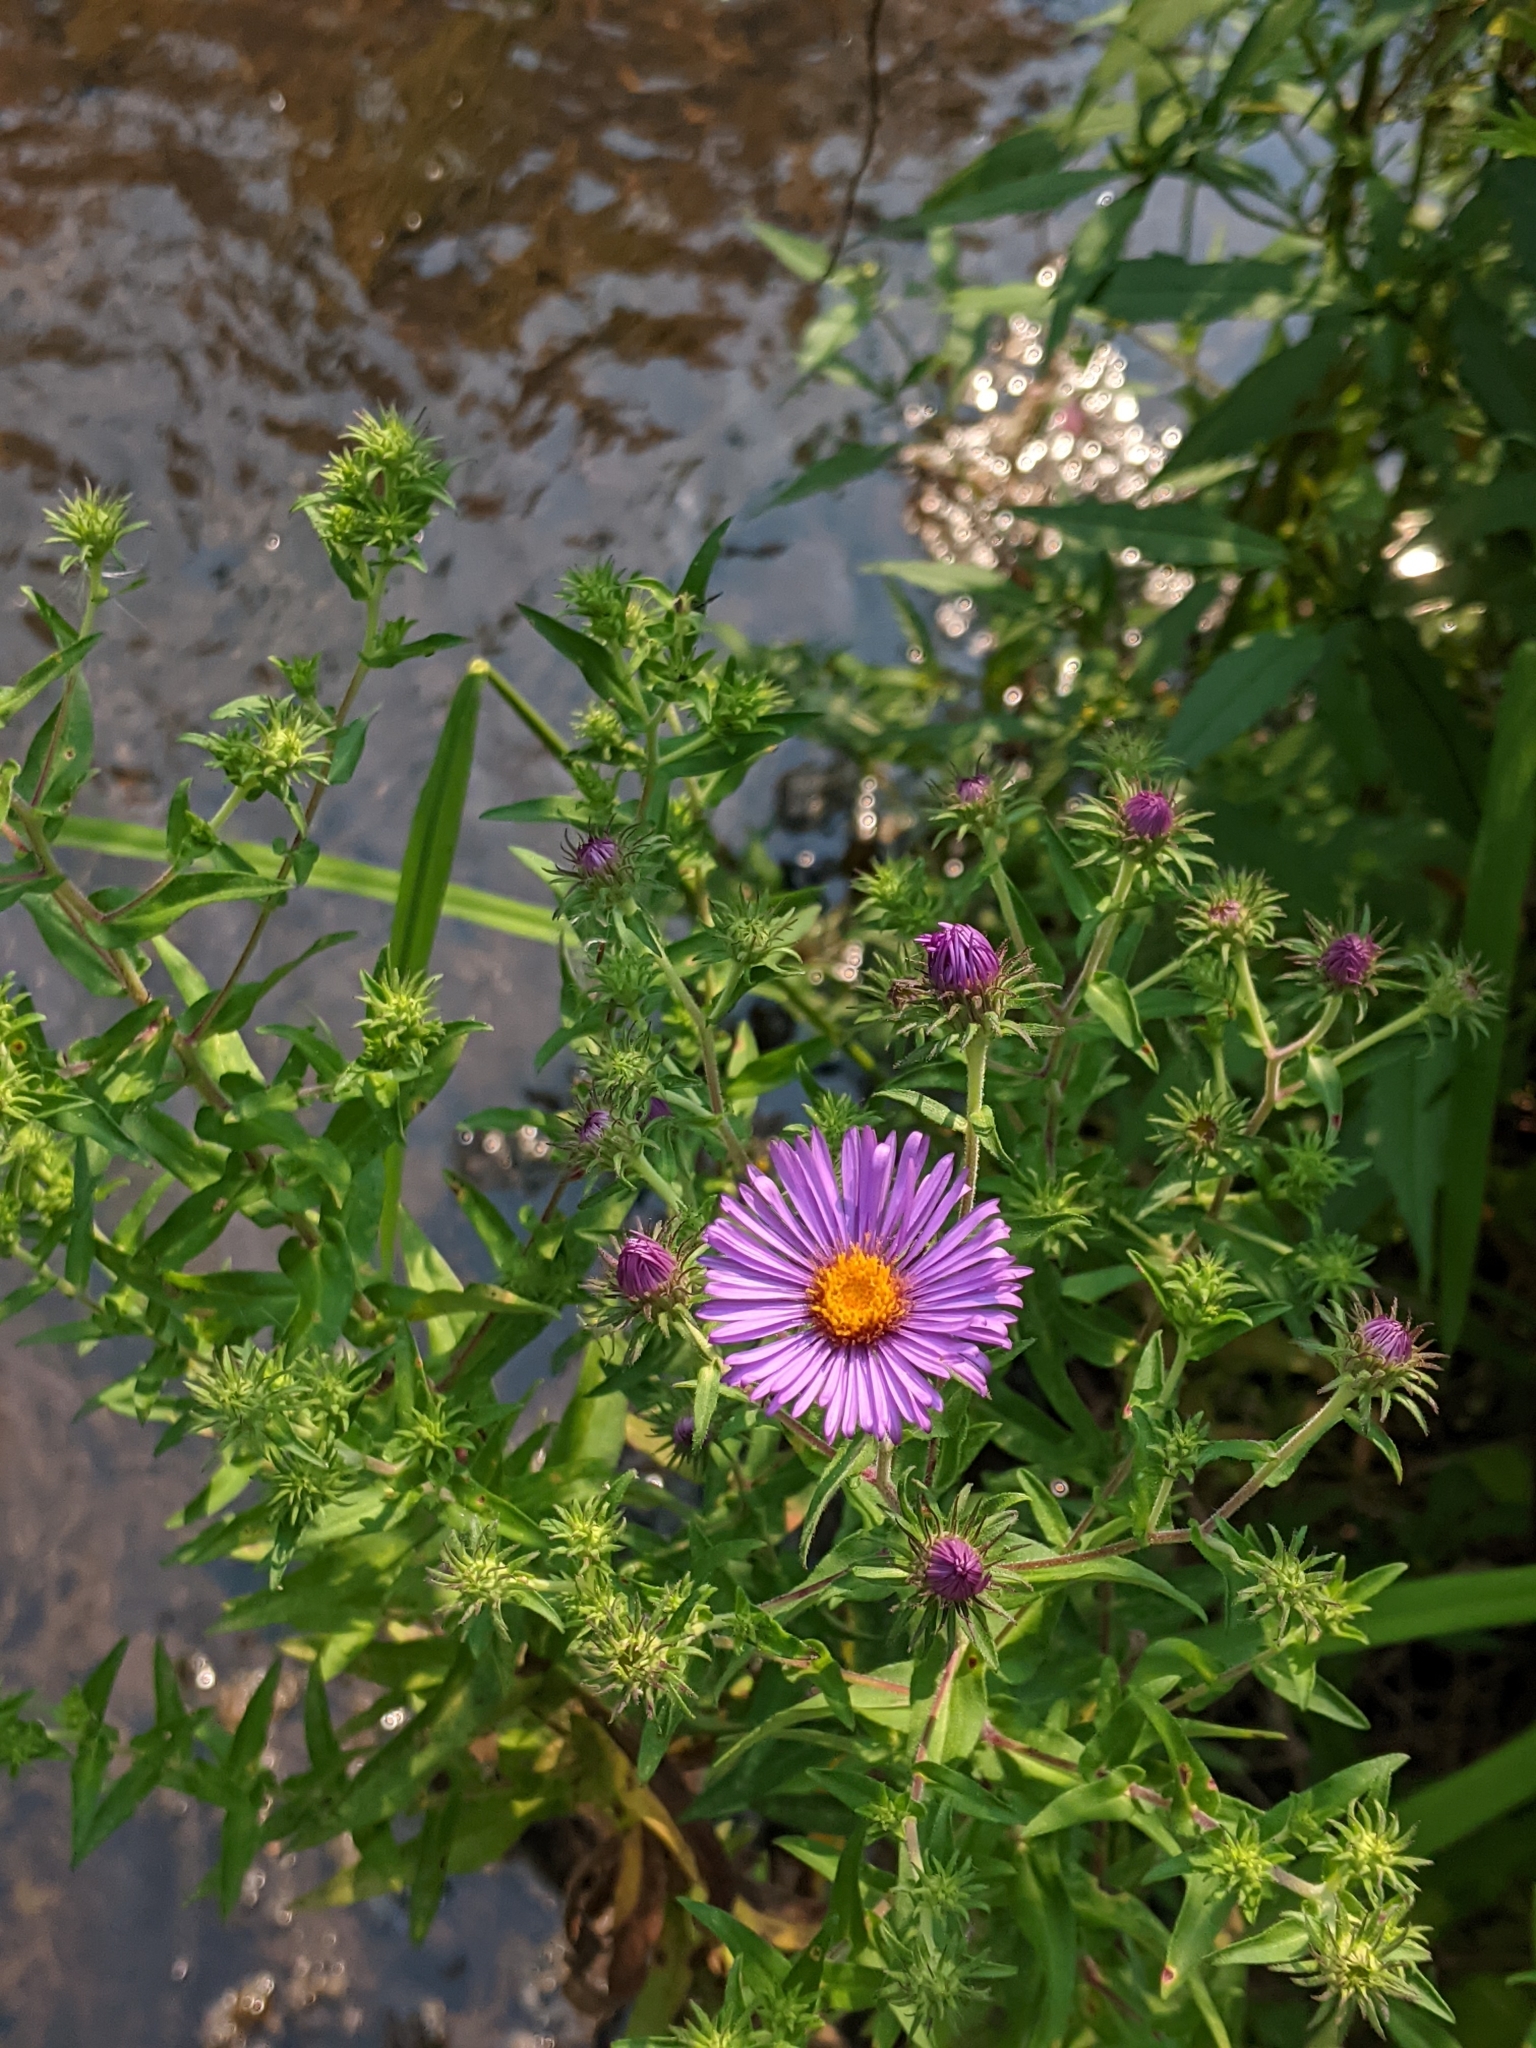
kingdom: Plantae
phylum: Tracheophyta
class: Magnoliopsida
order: Asterales
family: Asteraceae
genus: Symphyotrichum
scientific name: Symphyotrichum novae-angliae
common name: Michaelmas daisy
